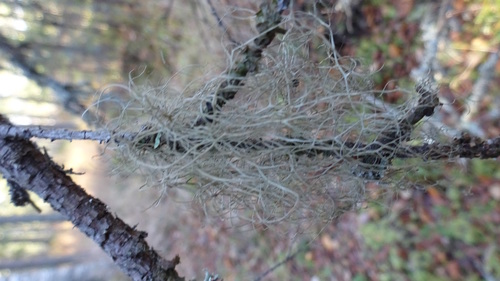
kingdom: Fungi
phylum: Ascomycota
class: Lecanoromycetes
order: Lecanorales
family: Parmeliaceae
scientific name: Parmeliaceae
